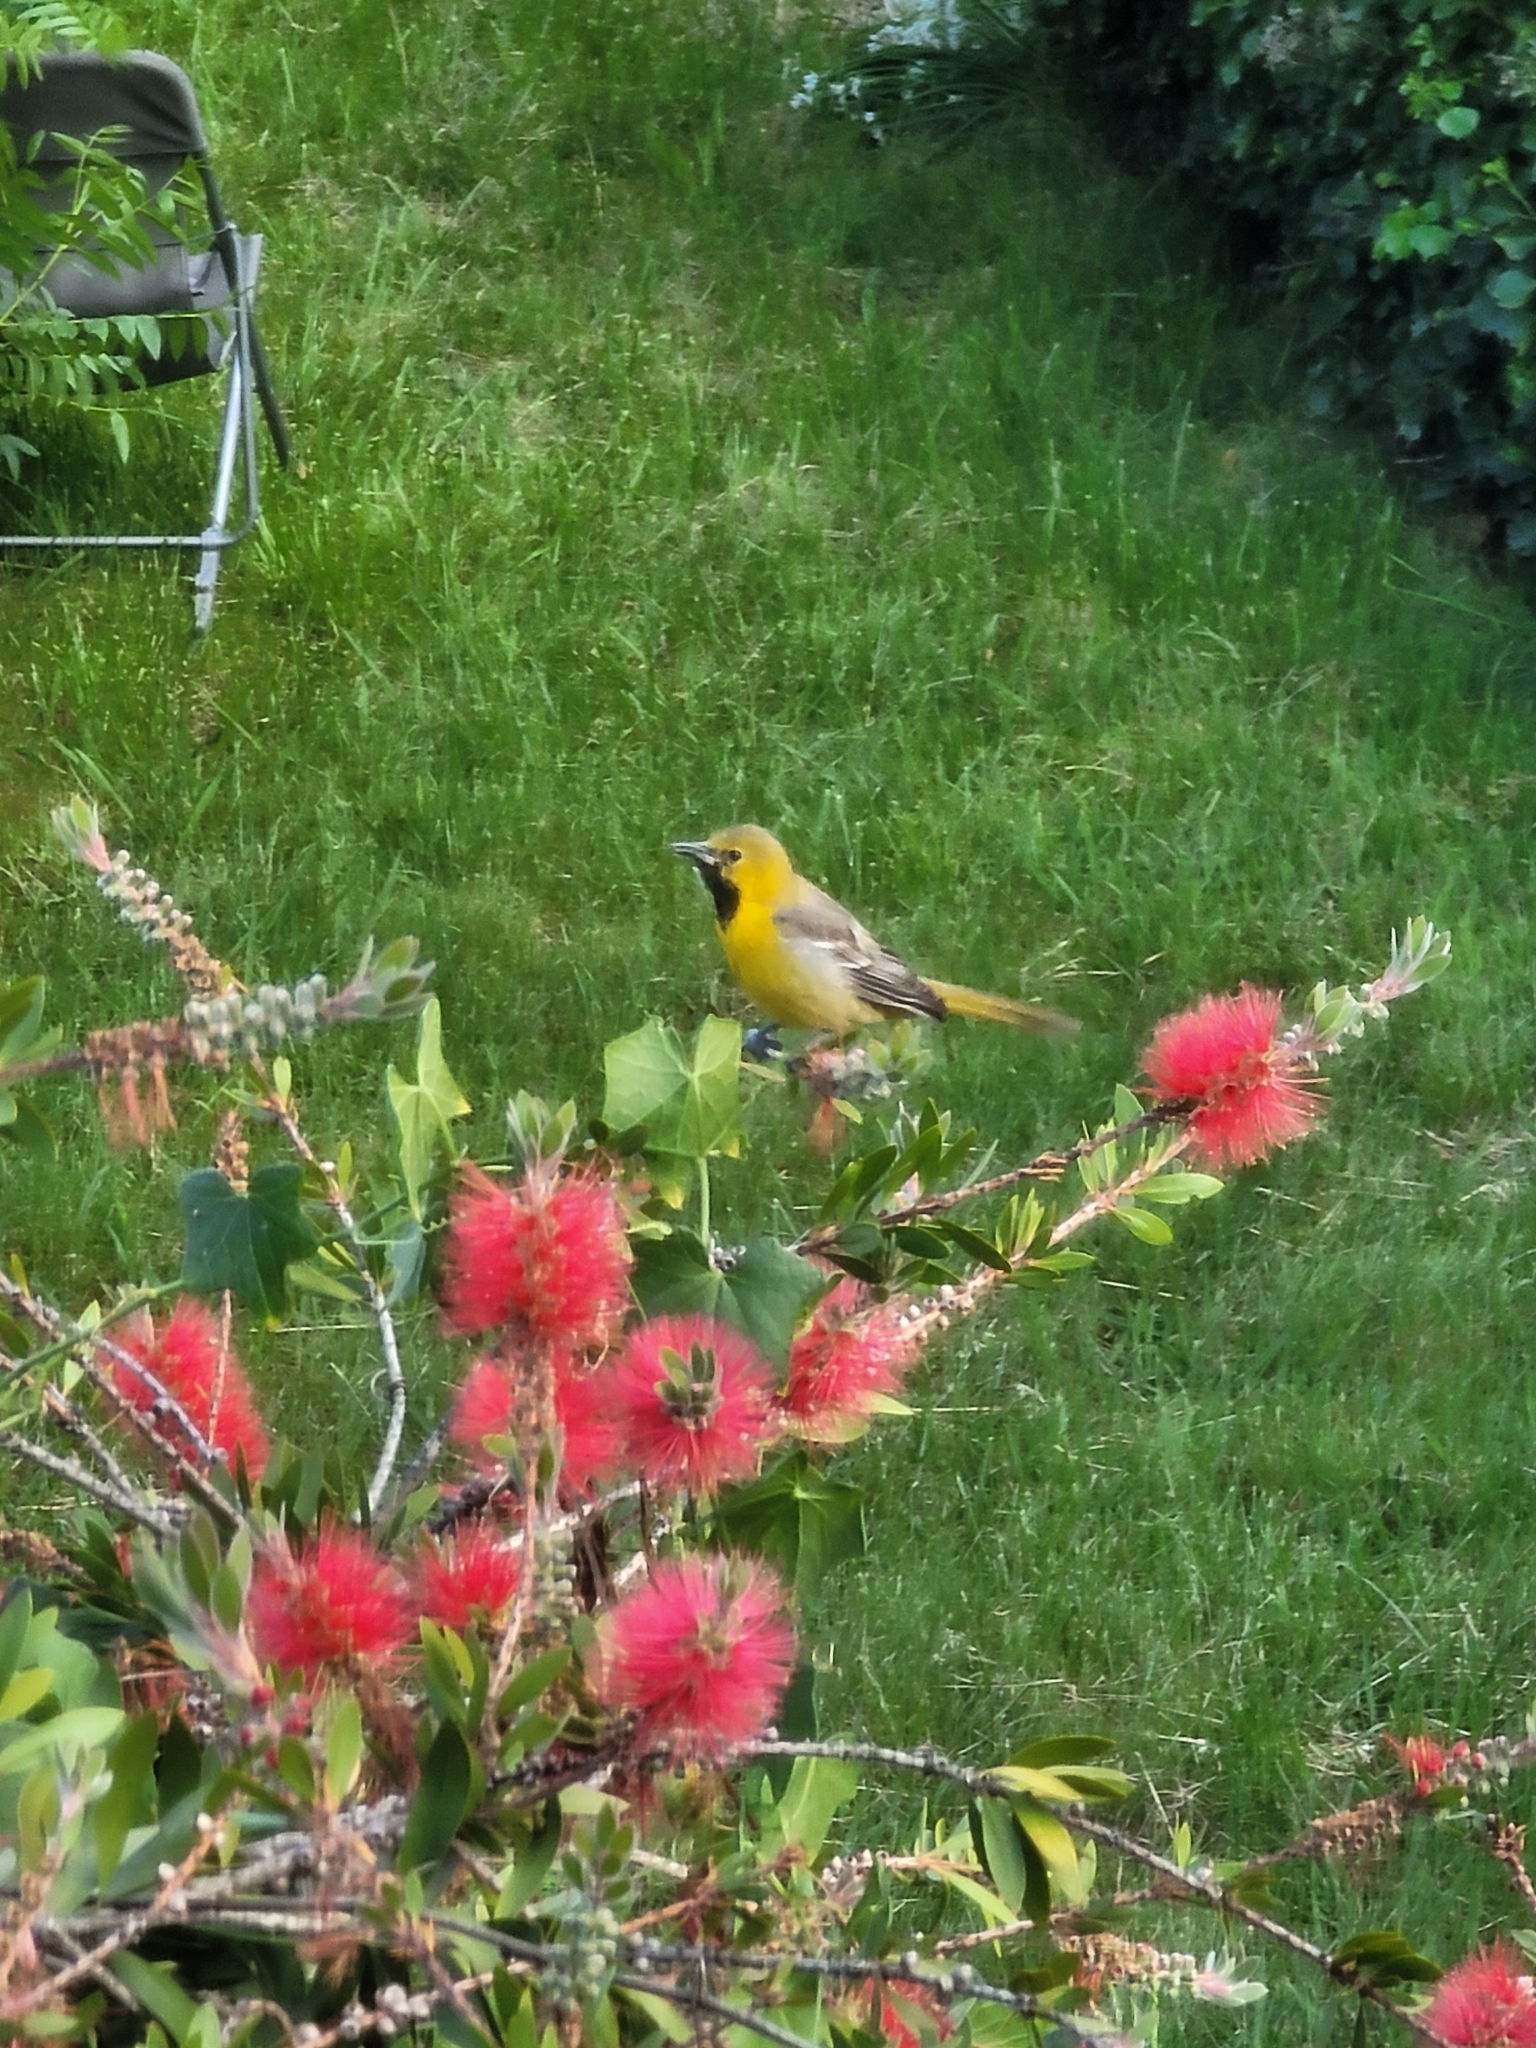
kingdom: Animalia
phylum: Chordata
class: Aves
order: Passeriformes
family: Icteridae
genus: Icterus
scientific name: Icterus cucullatus
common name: Hooded oriole
